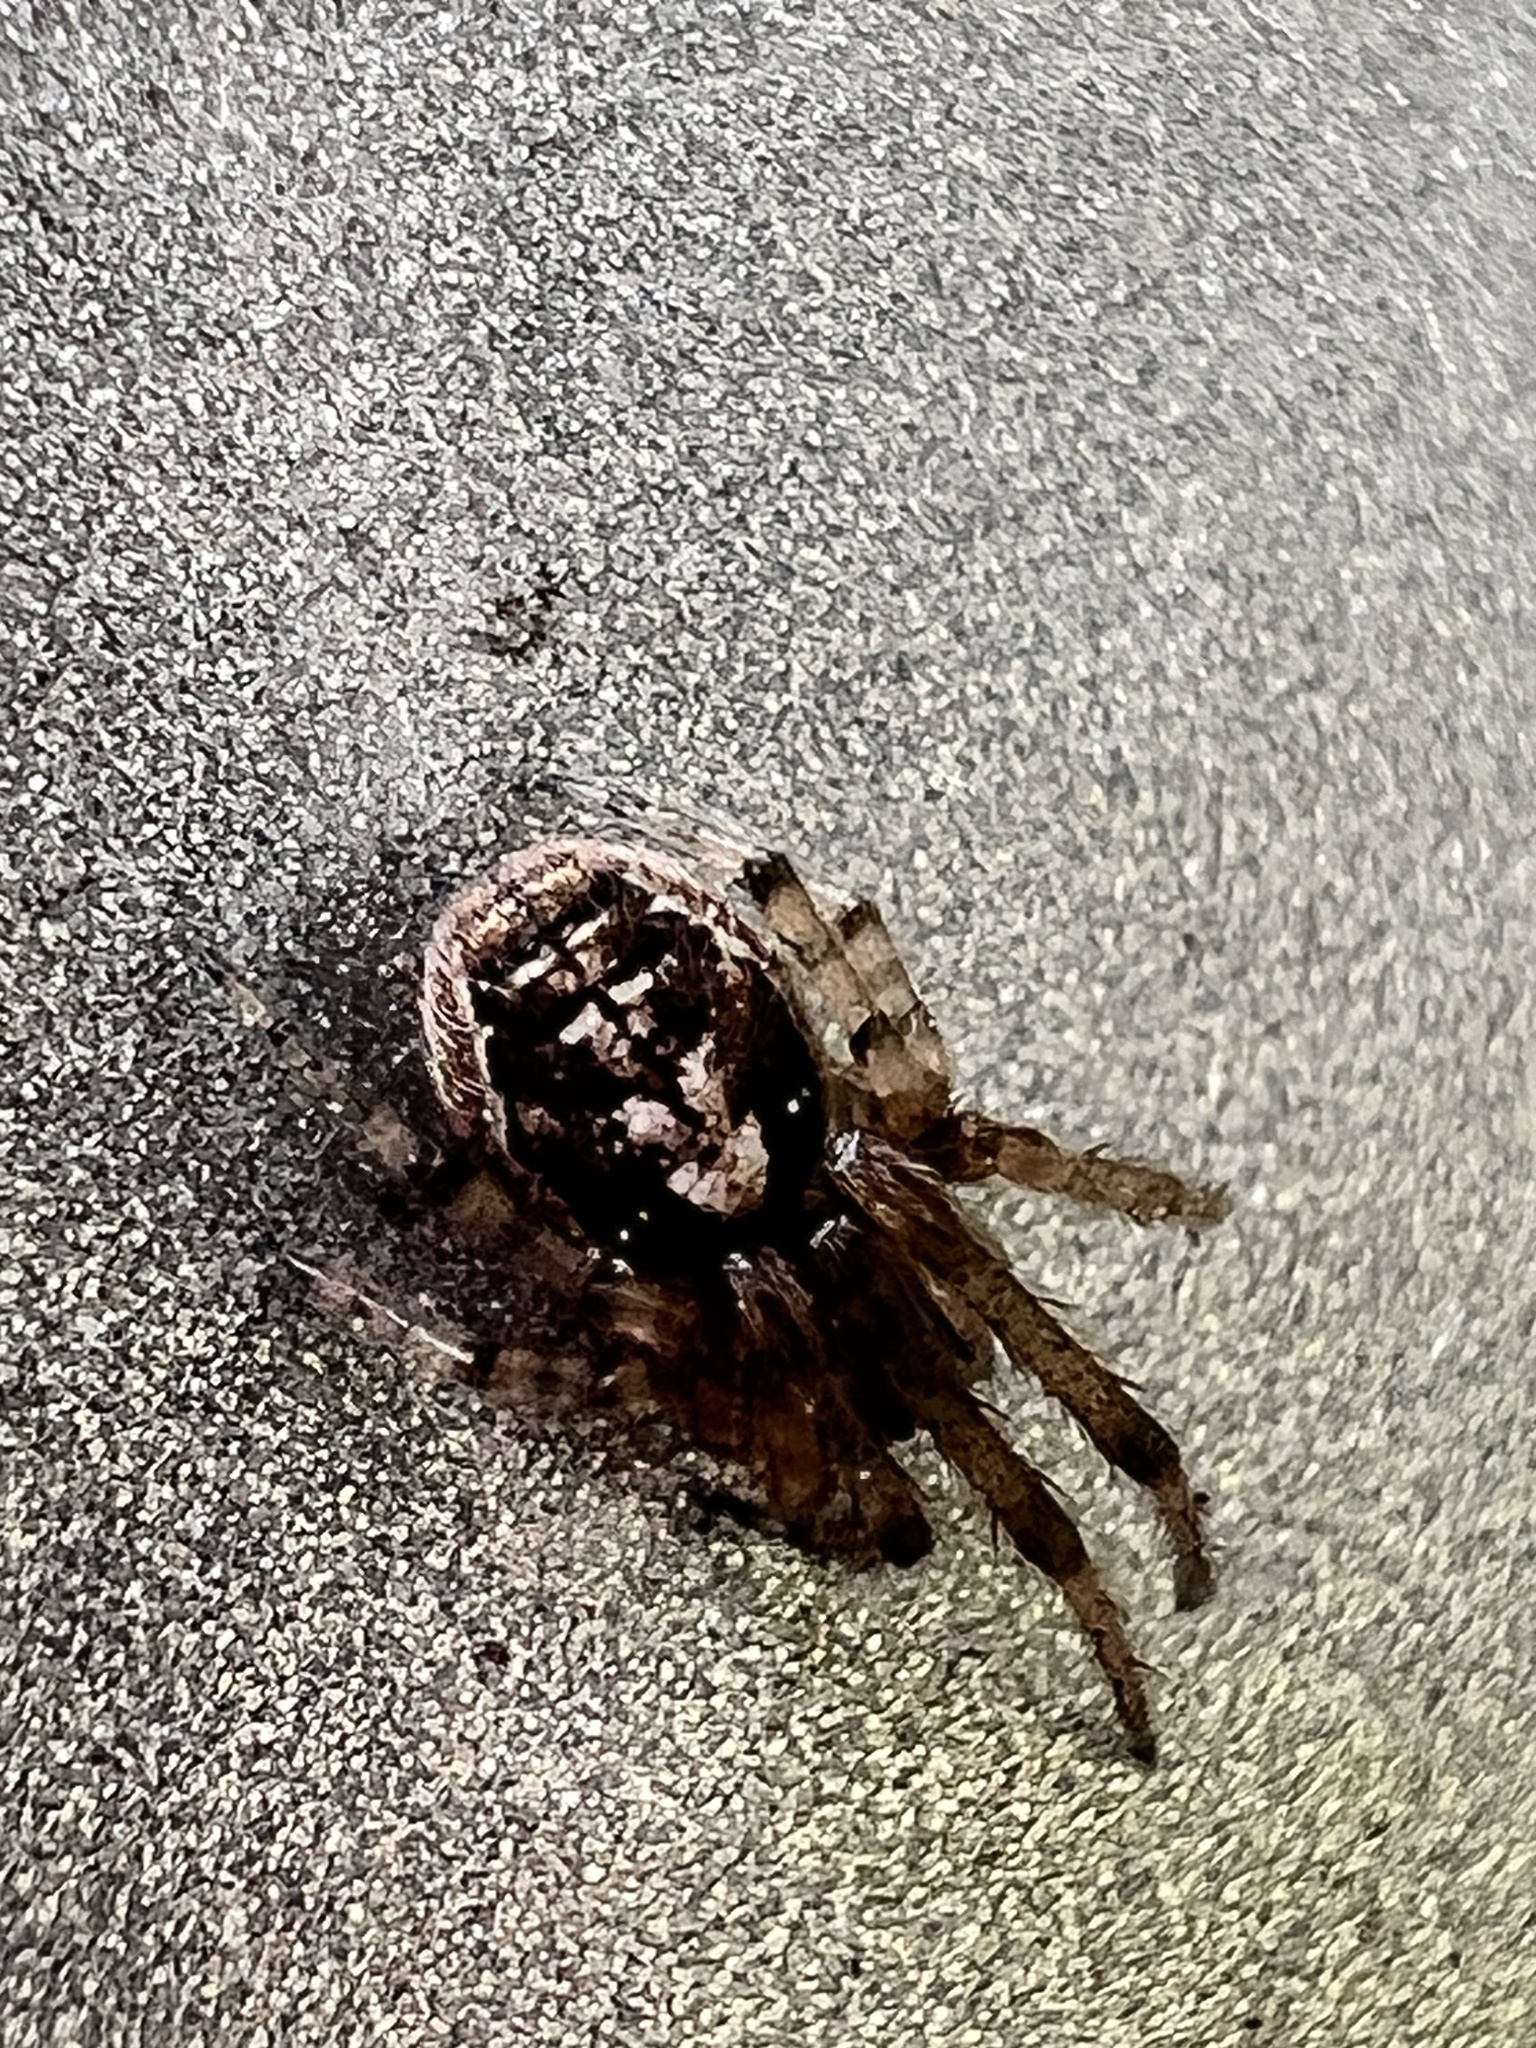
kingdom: Animalia
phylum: Arthropoda
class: Arachnida
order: Araneae
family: Araneidae
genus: Zygiella
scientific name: Zygiella x-notata
